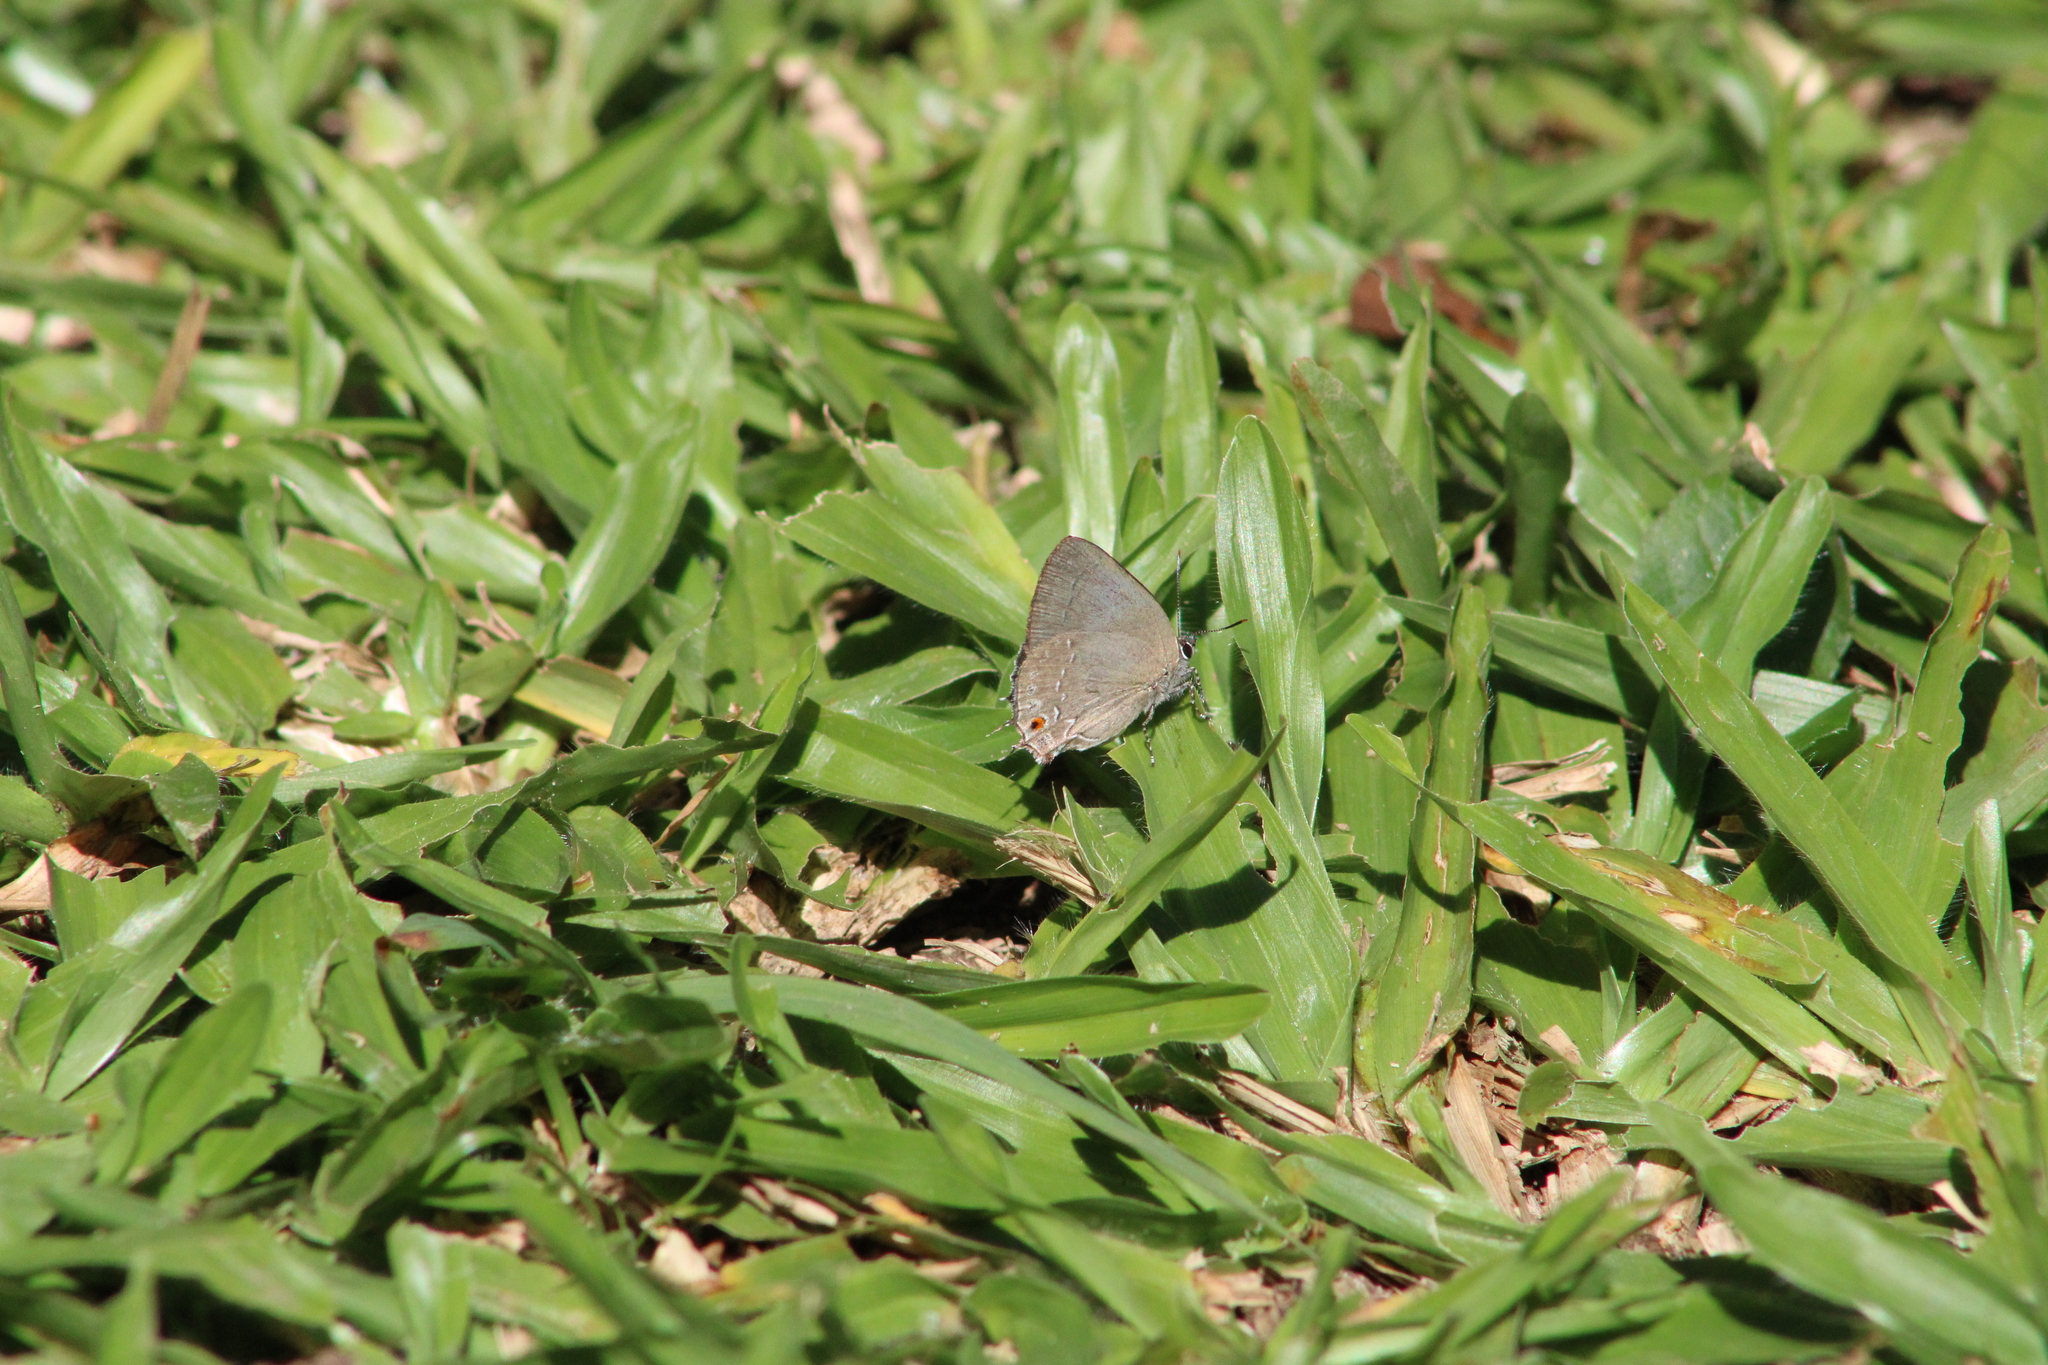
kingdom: Animalia
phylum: Arthropoda
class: Insecta
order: Lepidoptera
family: Lycaenidae
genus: Siderus
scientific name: Siderus
